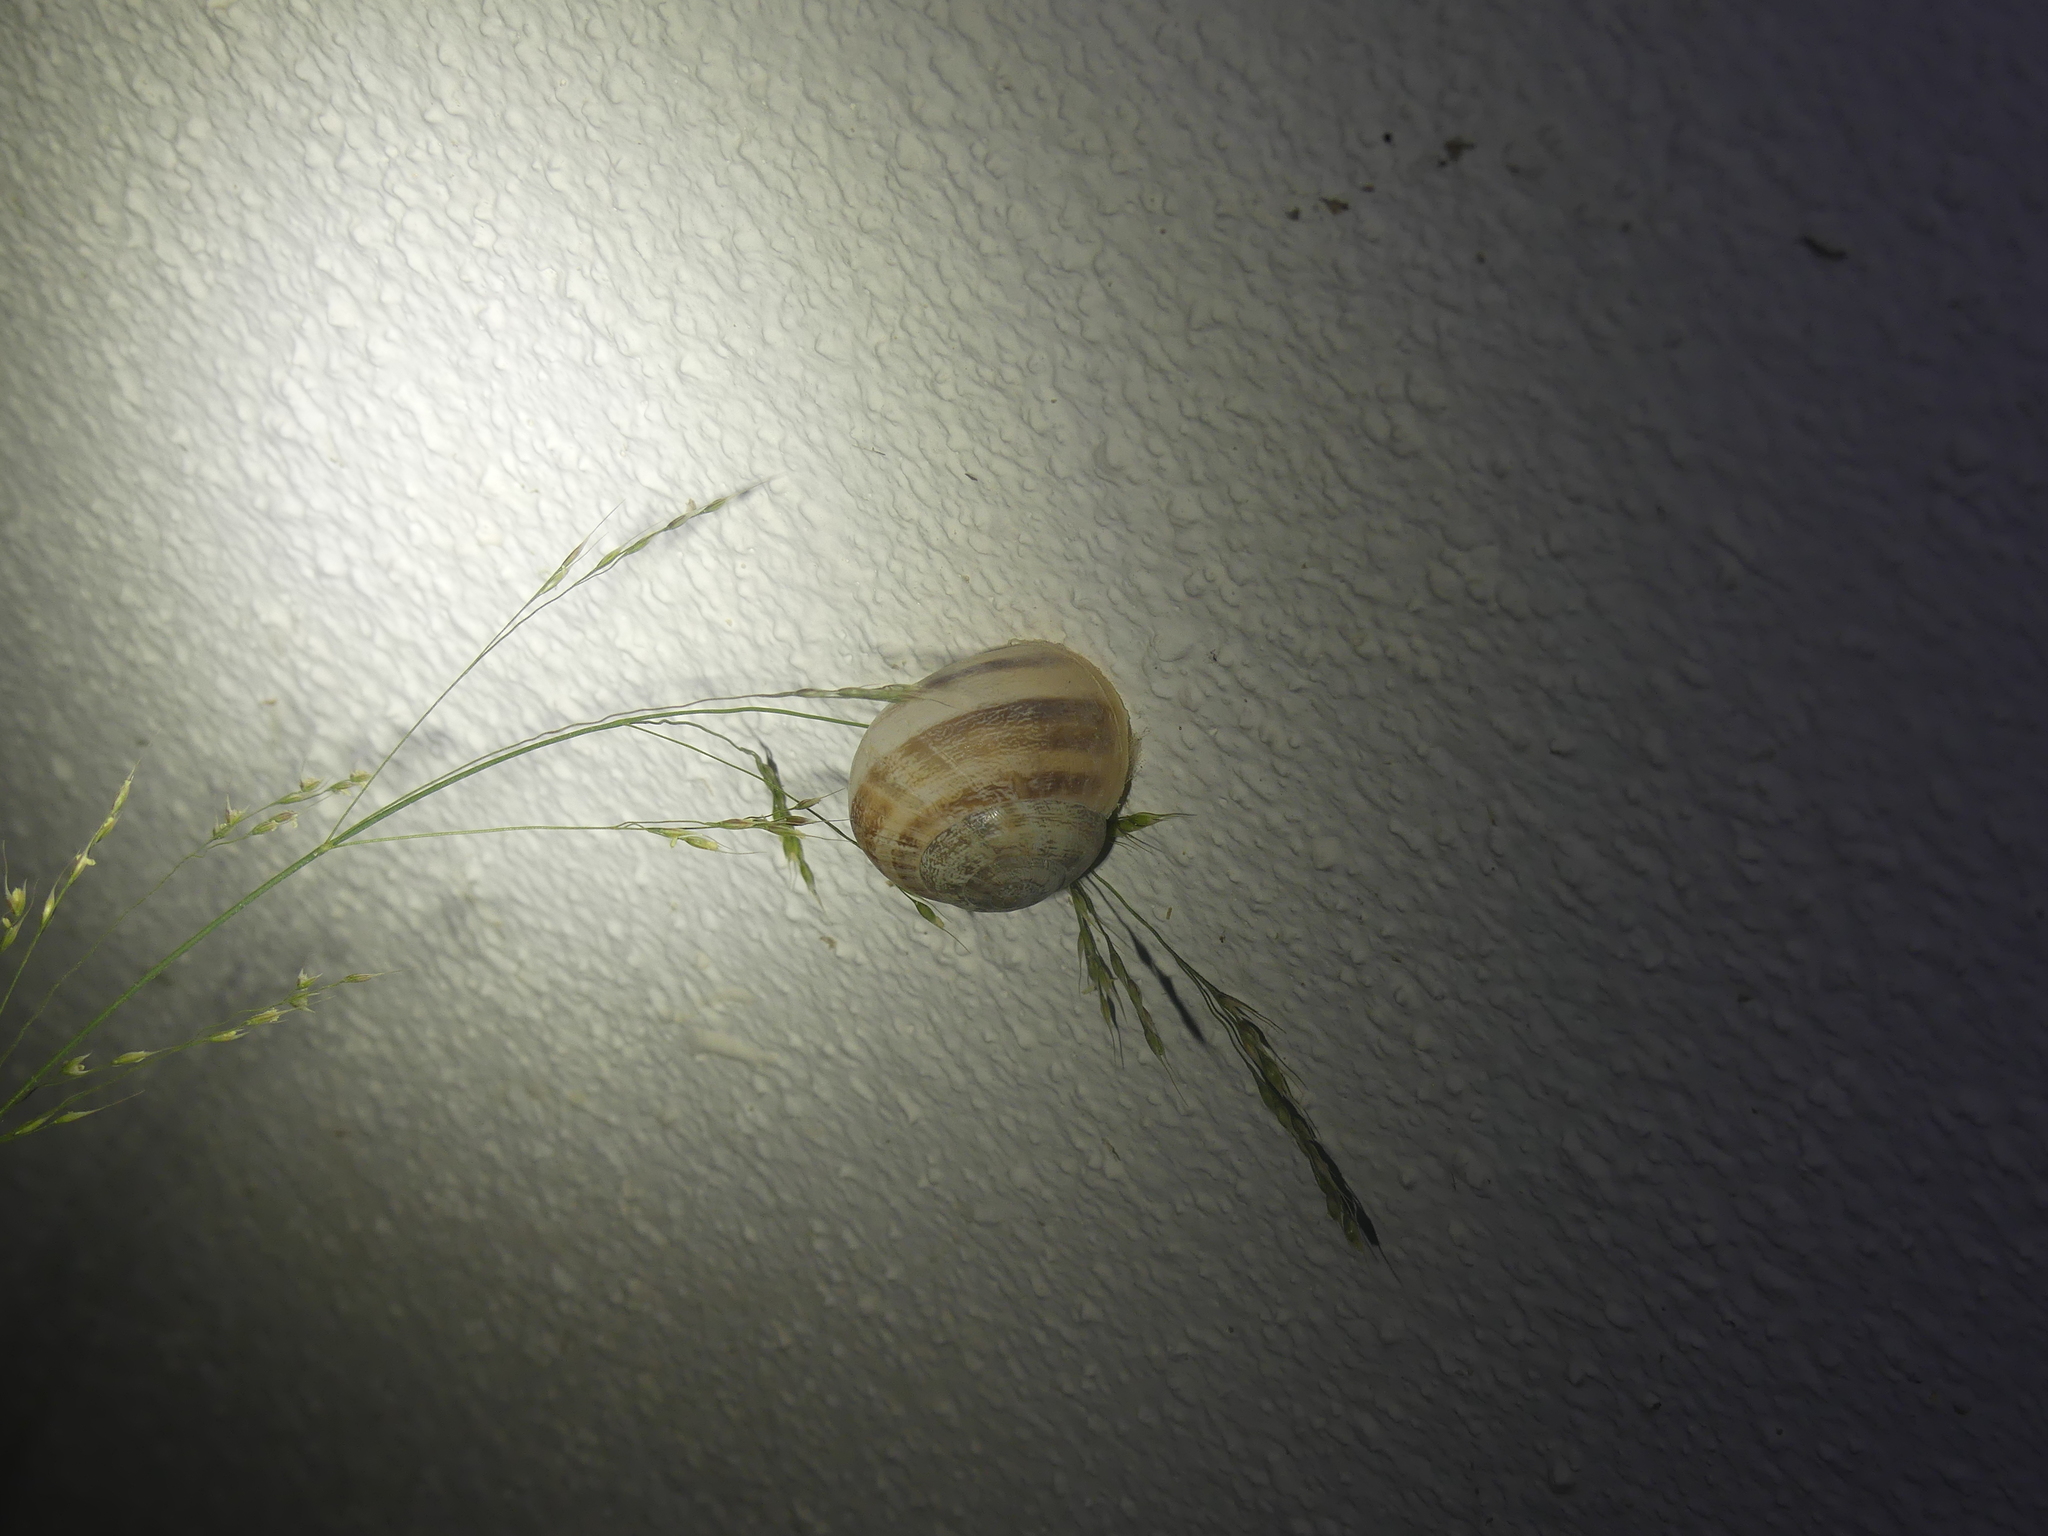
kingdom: Animalia
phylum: Mollusca
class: Gastropoda
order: Stylommatophora
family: Helicidae
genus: Eobania
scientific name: Eobania vermiculata
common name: Chocolateband snail
